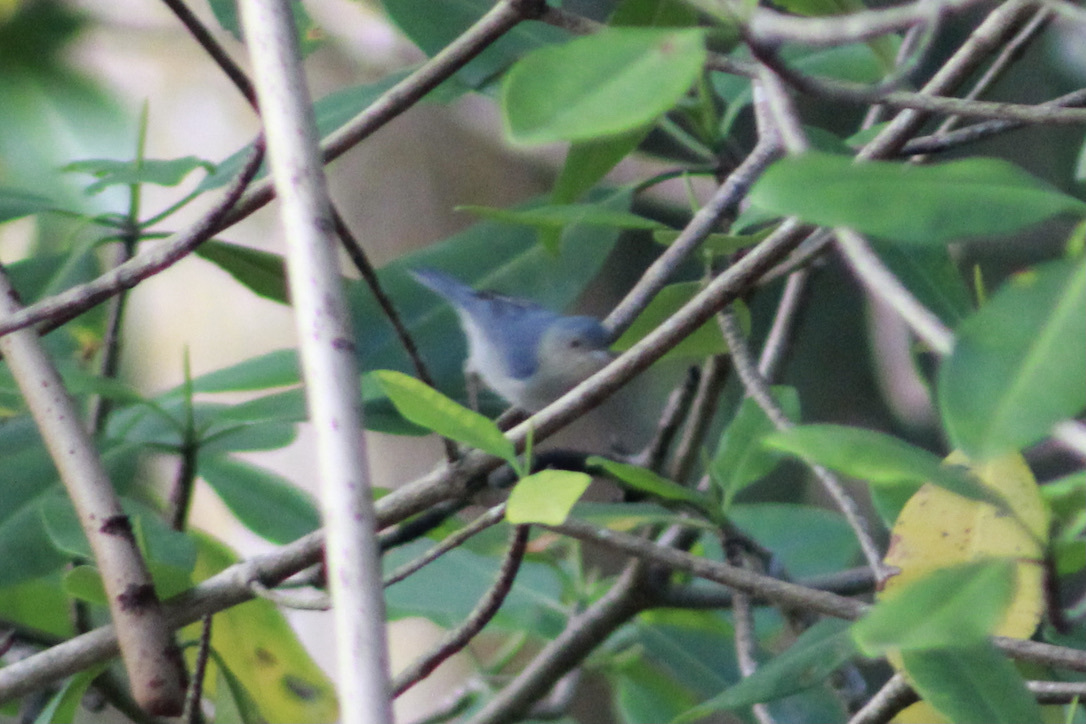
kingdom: Animalia
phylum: Chordata
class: Aves
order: Passeriformes
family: Thraupidae
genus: Conirostrum
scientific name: Conirostrum bicolor
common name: Bicolored conebill
